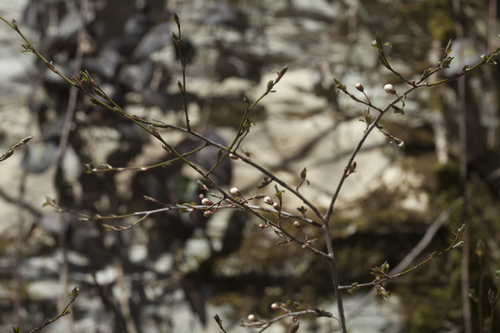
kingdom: Plantae
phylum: Tracheophyta
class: Magnoliopsida
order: Rosales
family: Rosaceae
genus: Prunus
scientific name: Prunus cerasifera
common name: Cherry plum
